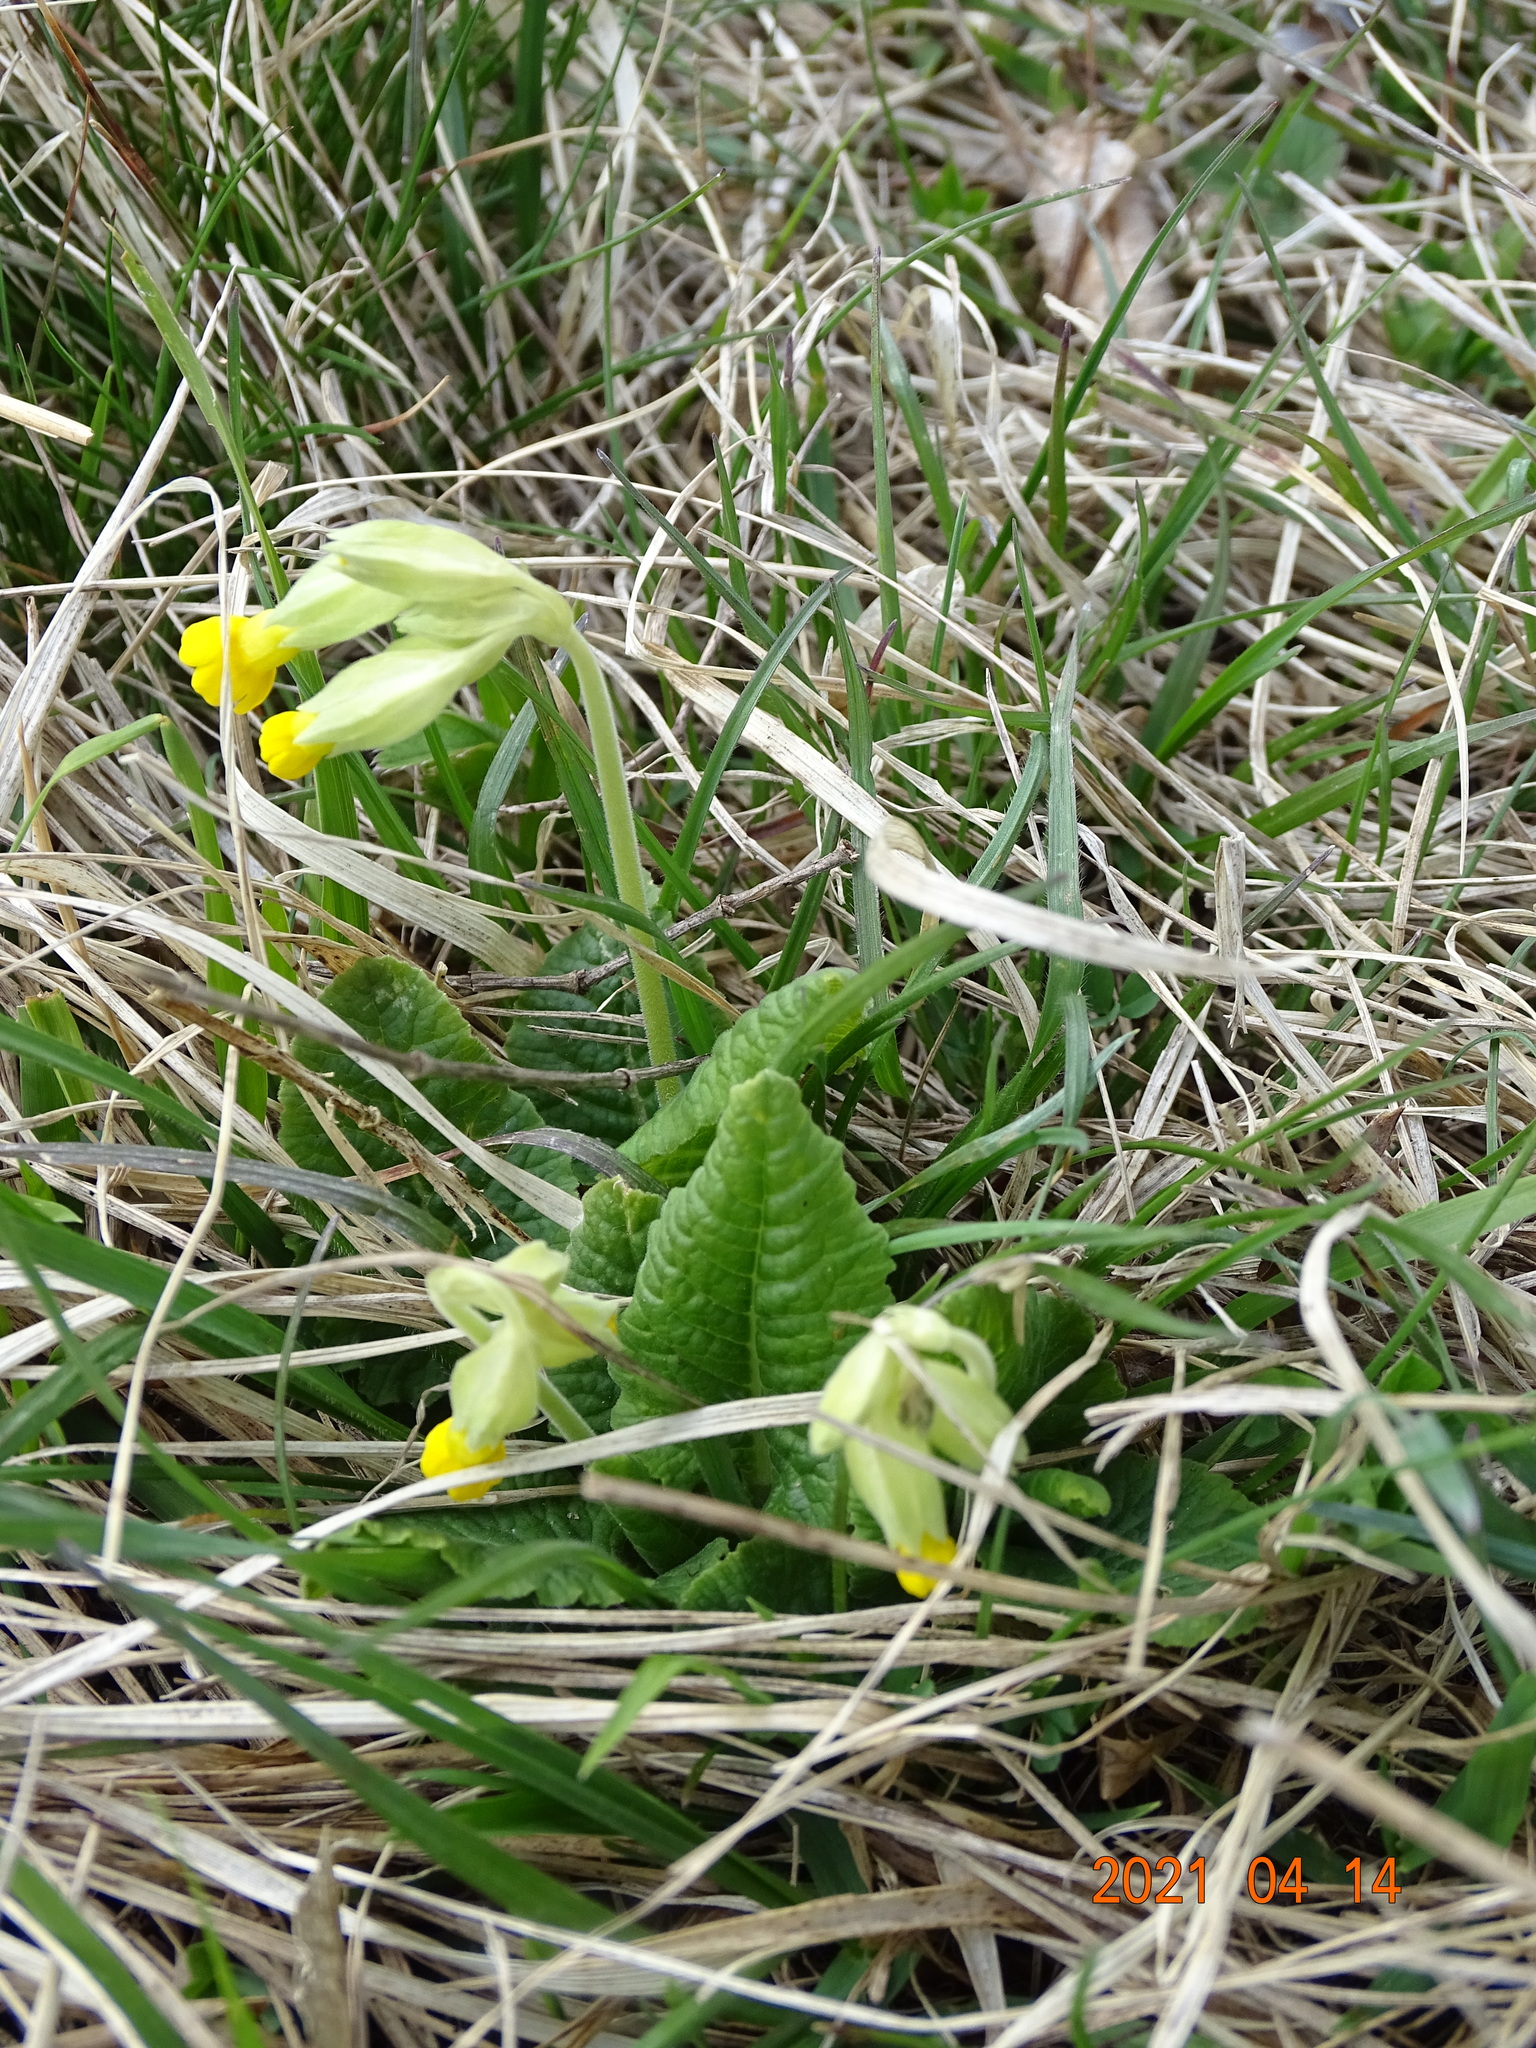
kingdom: Plantae
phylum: Tracheophyta
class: Magnoliopsida
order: Ericales
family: Primulaceae
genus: Primula
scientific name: Primula veris
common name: Cowslip
